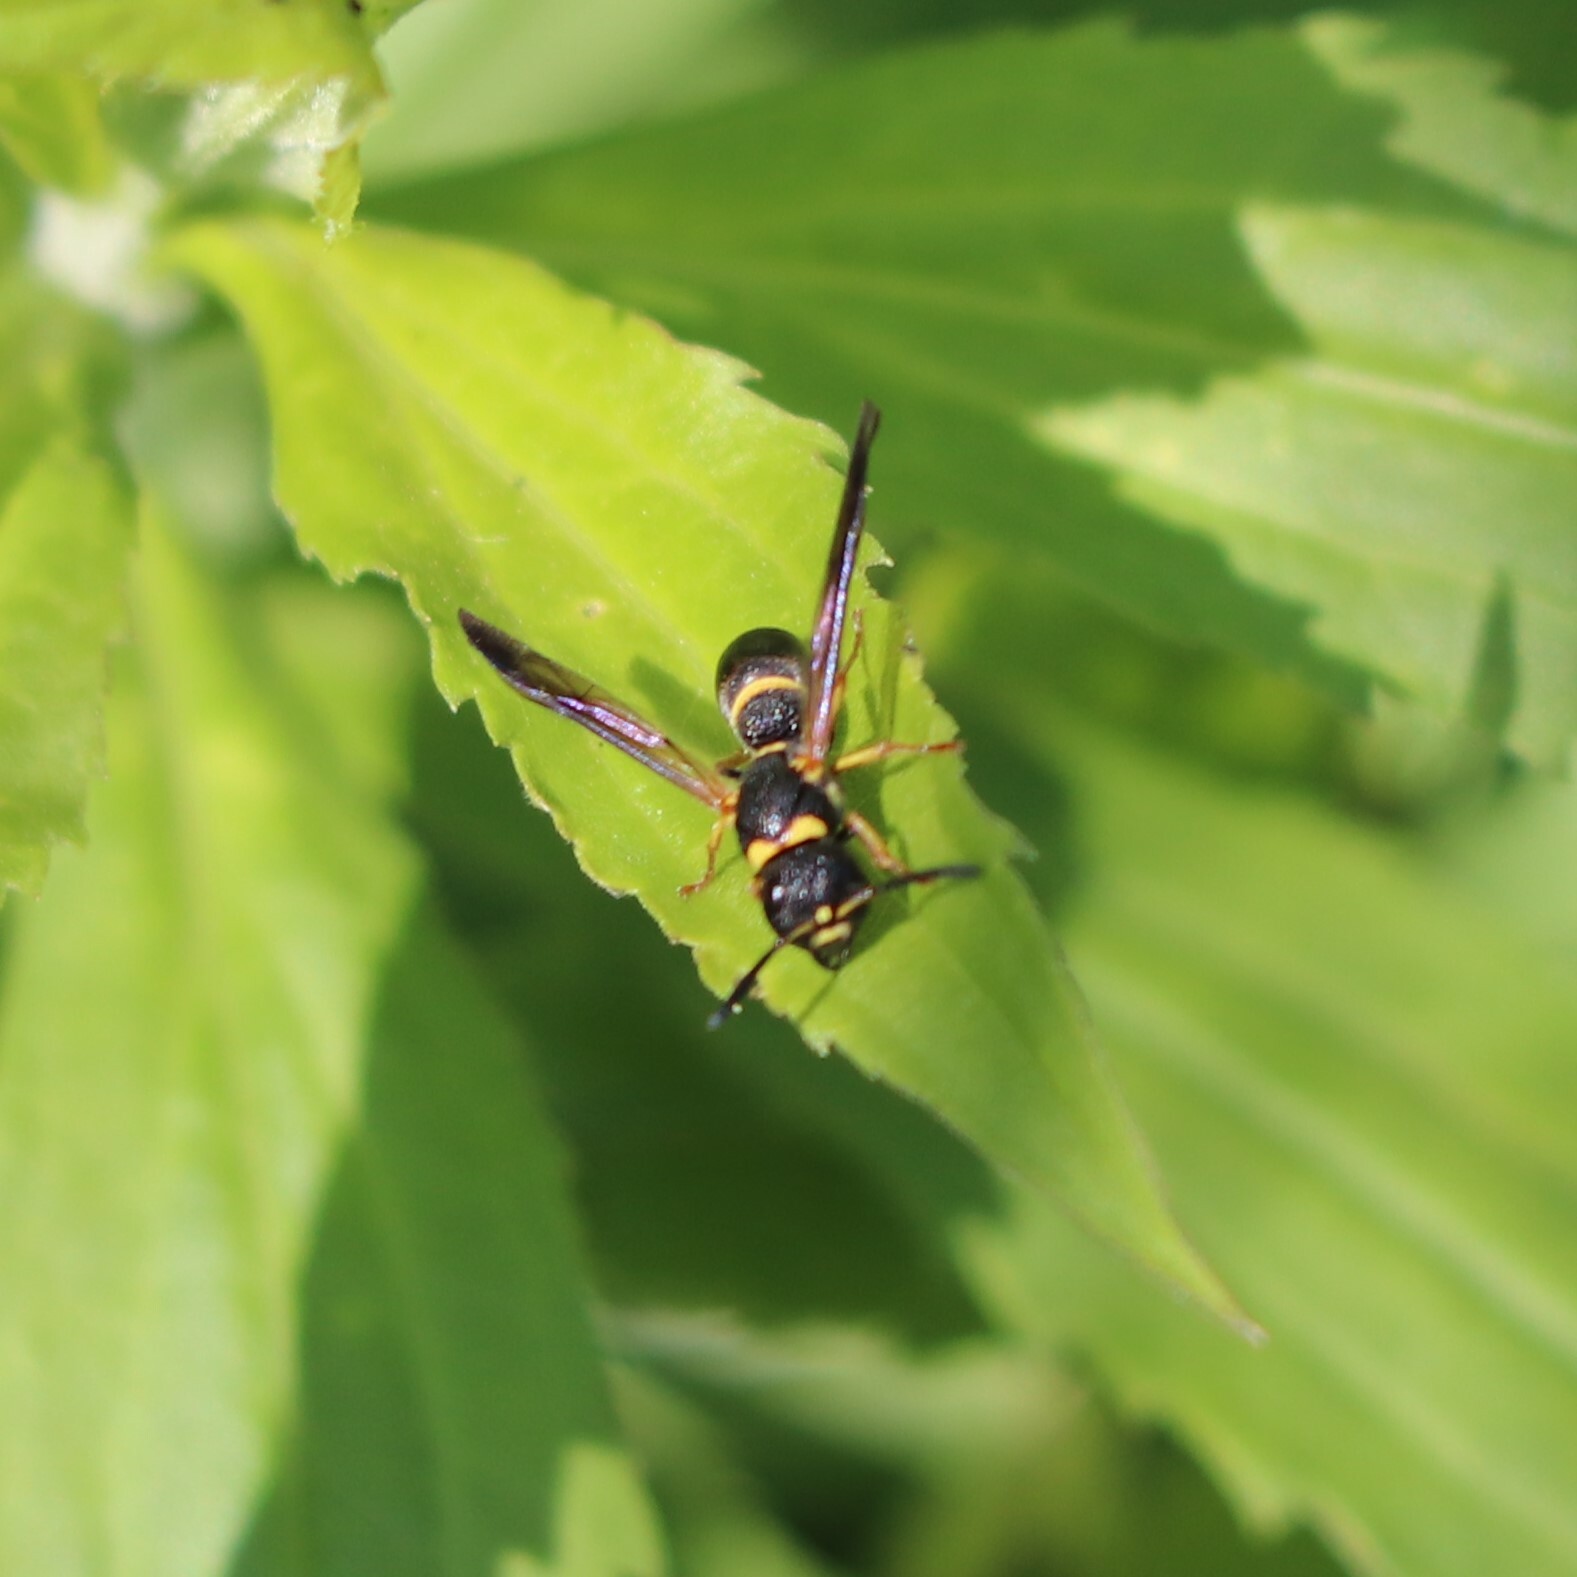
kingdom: Animalia
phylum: Arthropoda
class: Insecta
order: Hymenoptera
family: Eumenidae
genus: Parancistrocerus
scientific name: Parancistrocerus perennis
